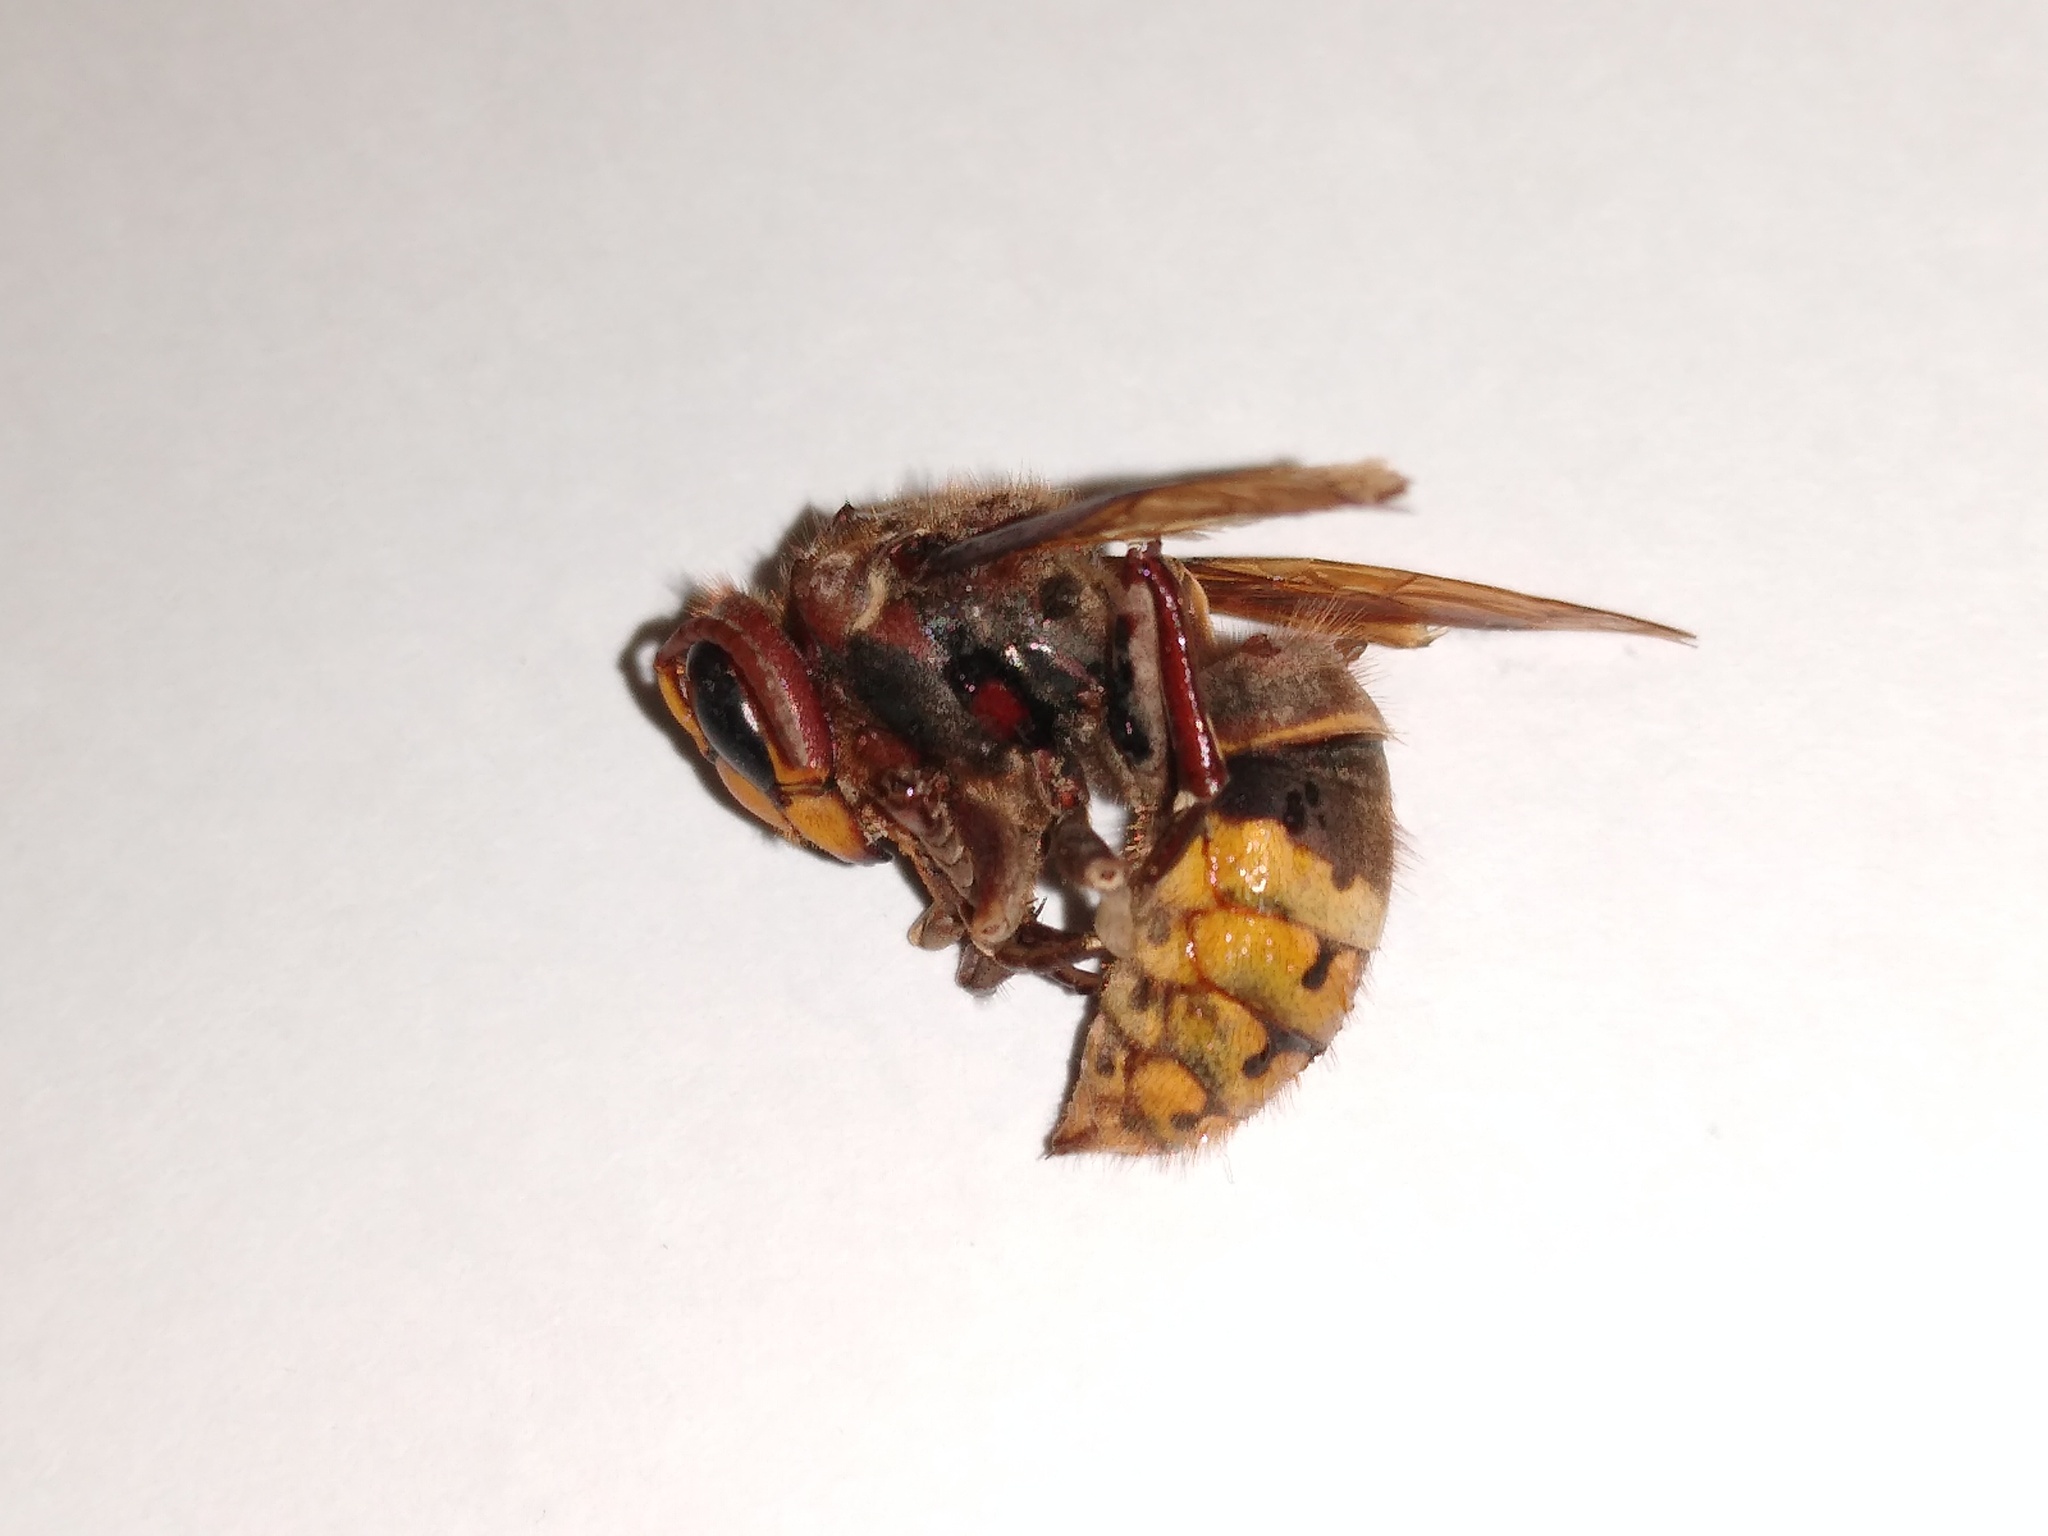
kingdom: Animalia
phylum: Arthropoda
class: Insecta
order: Hymenoptera
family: Vespidae
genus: Vespa
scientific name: Vespa crabro
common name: Hornet
